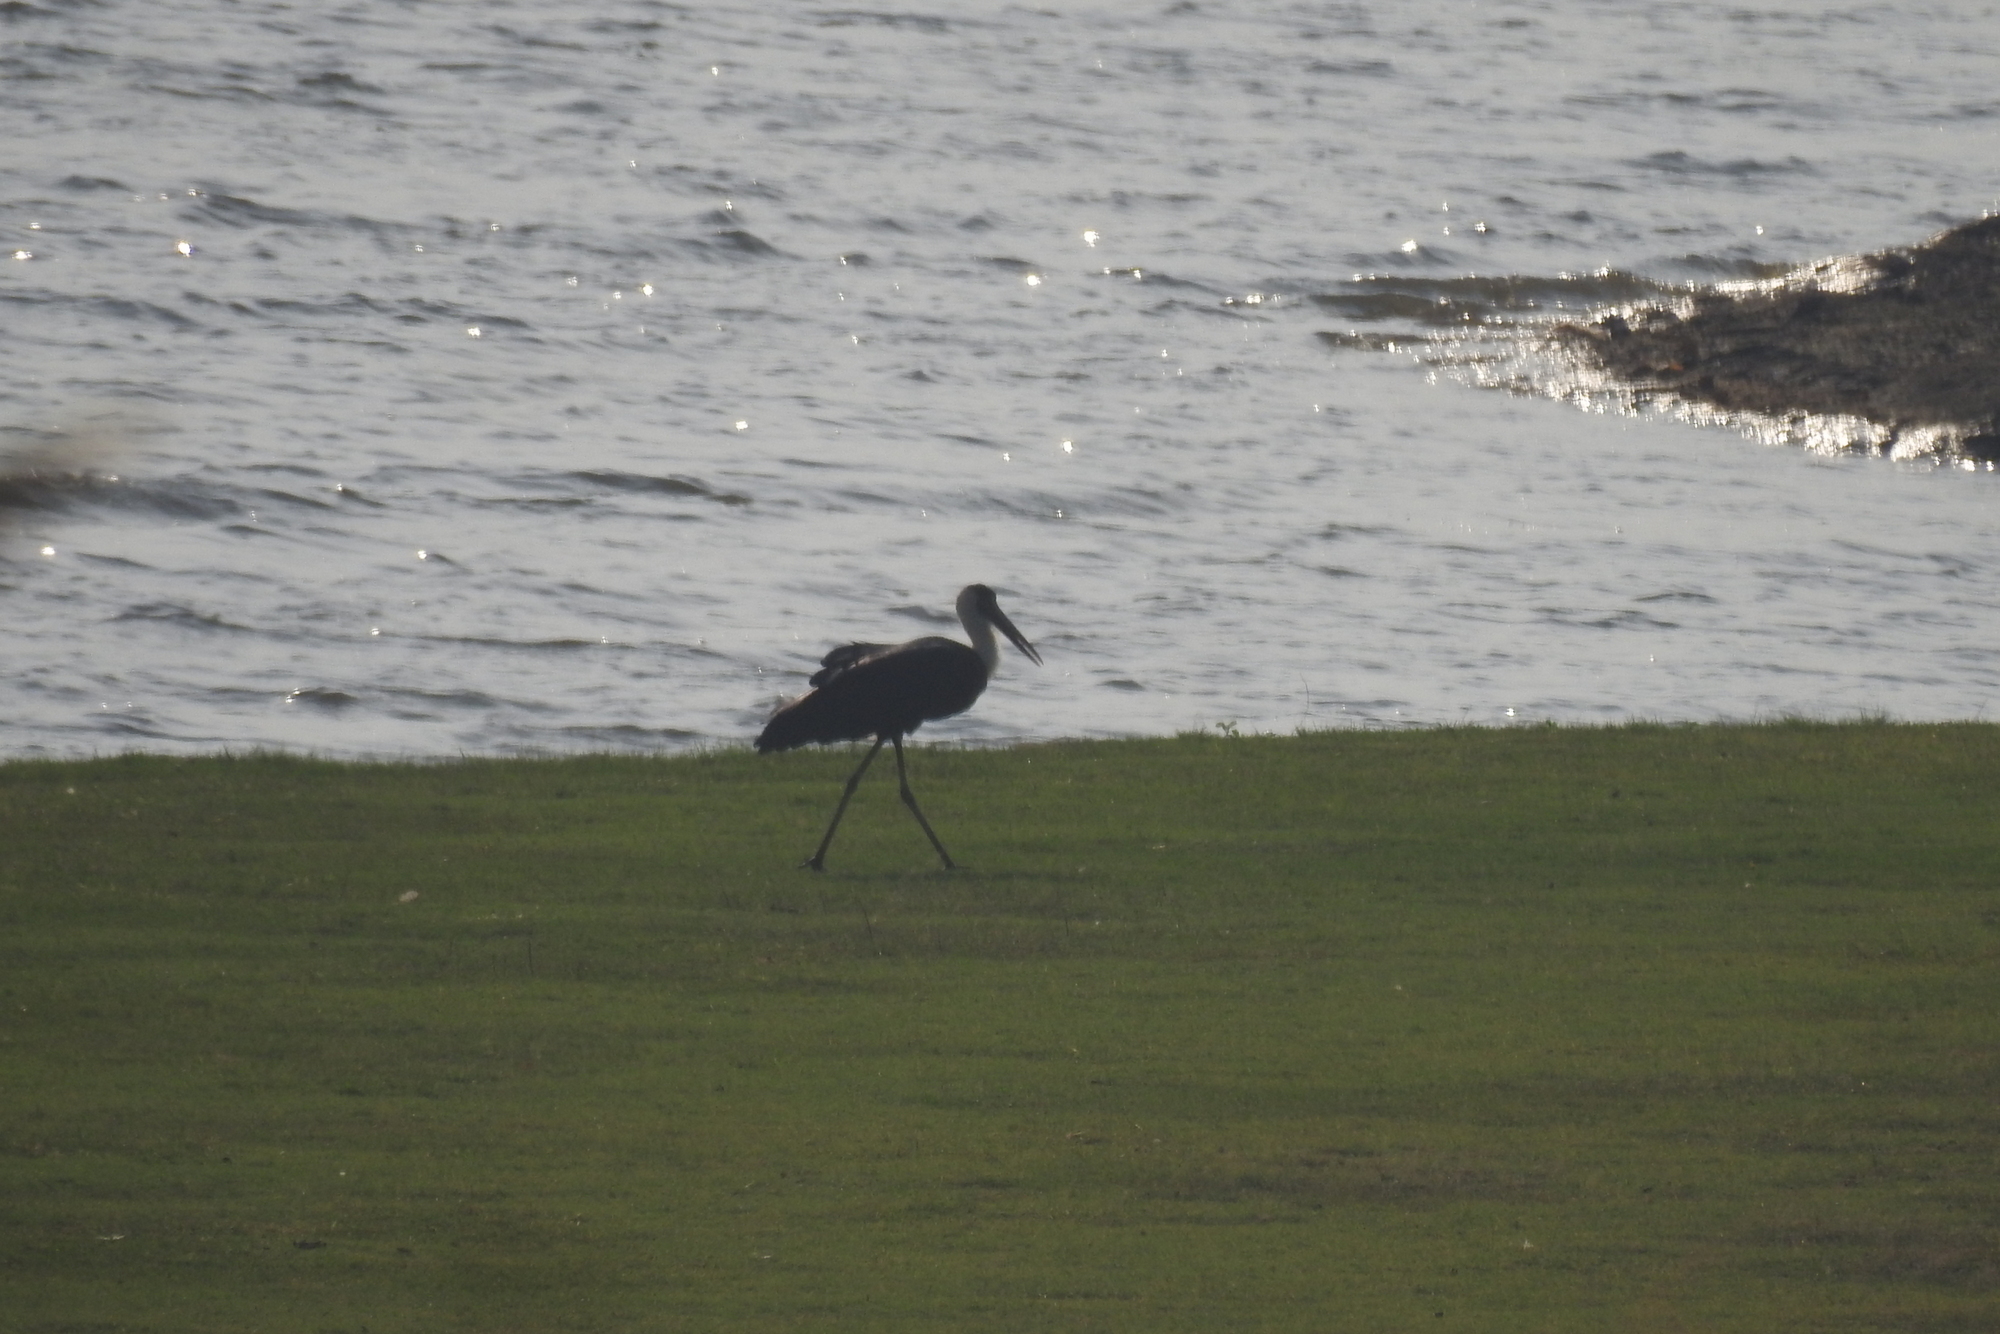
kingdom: Animalia
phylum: Chordata
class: Aves
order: Ciconiiformes
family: Ciconiidae
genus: Ciconia
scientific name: Ciconia episcopus
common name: Woolly-necked stork
